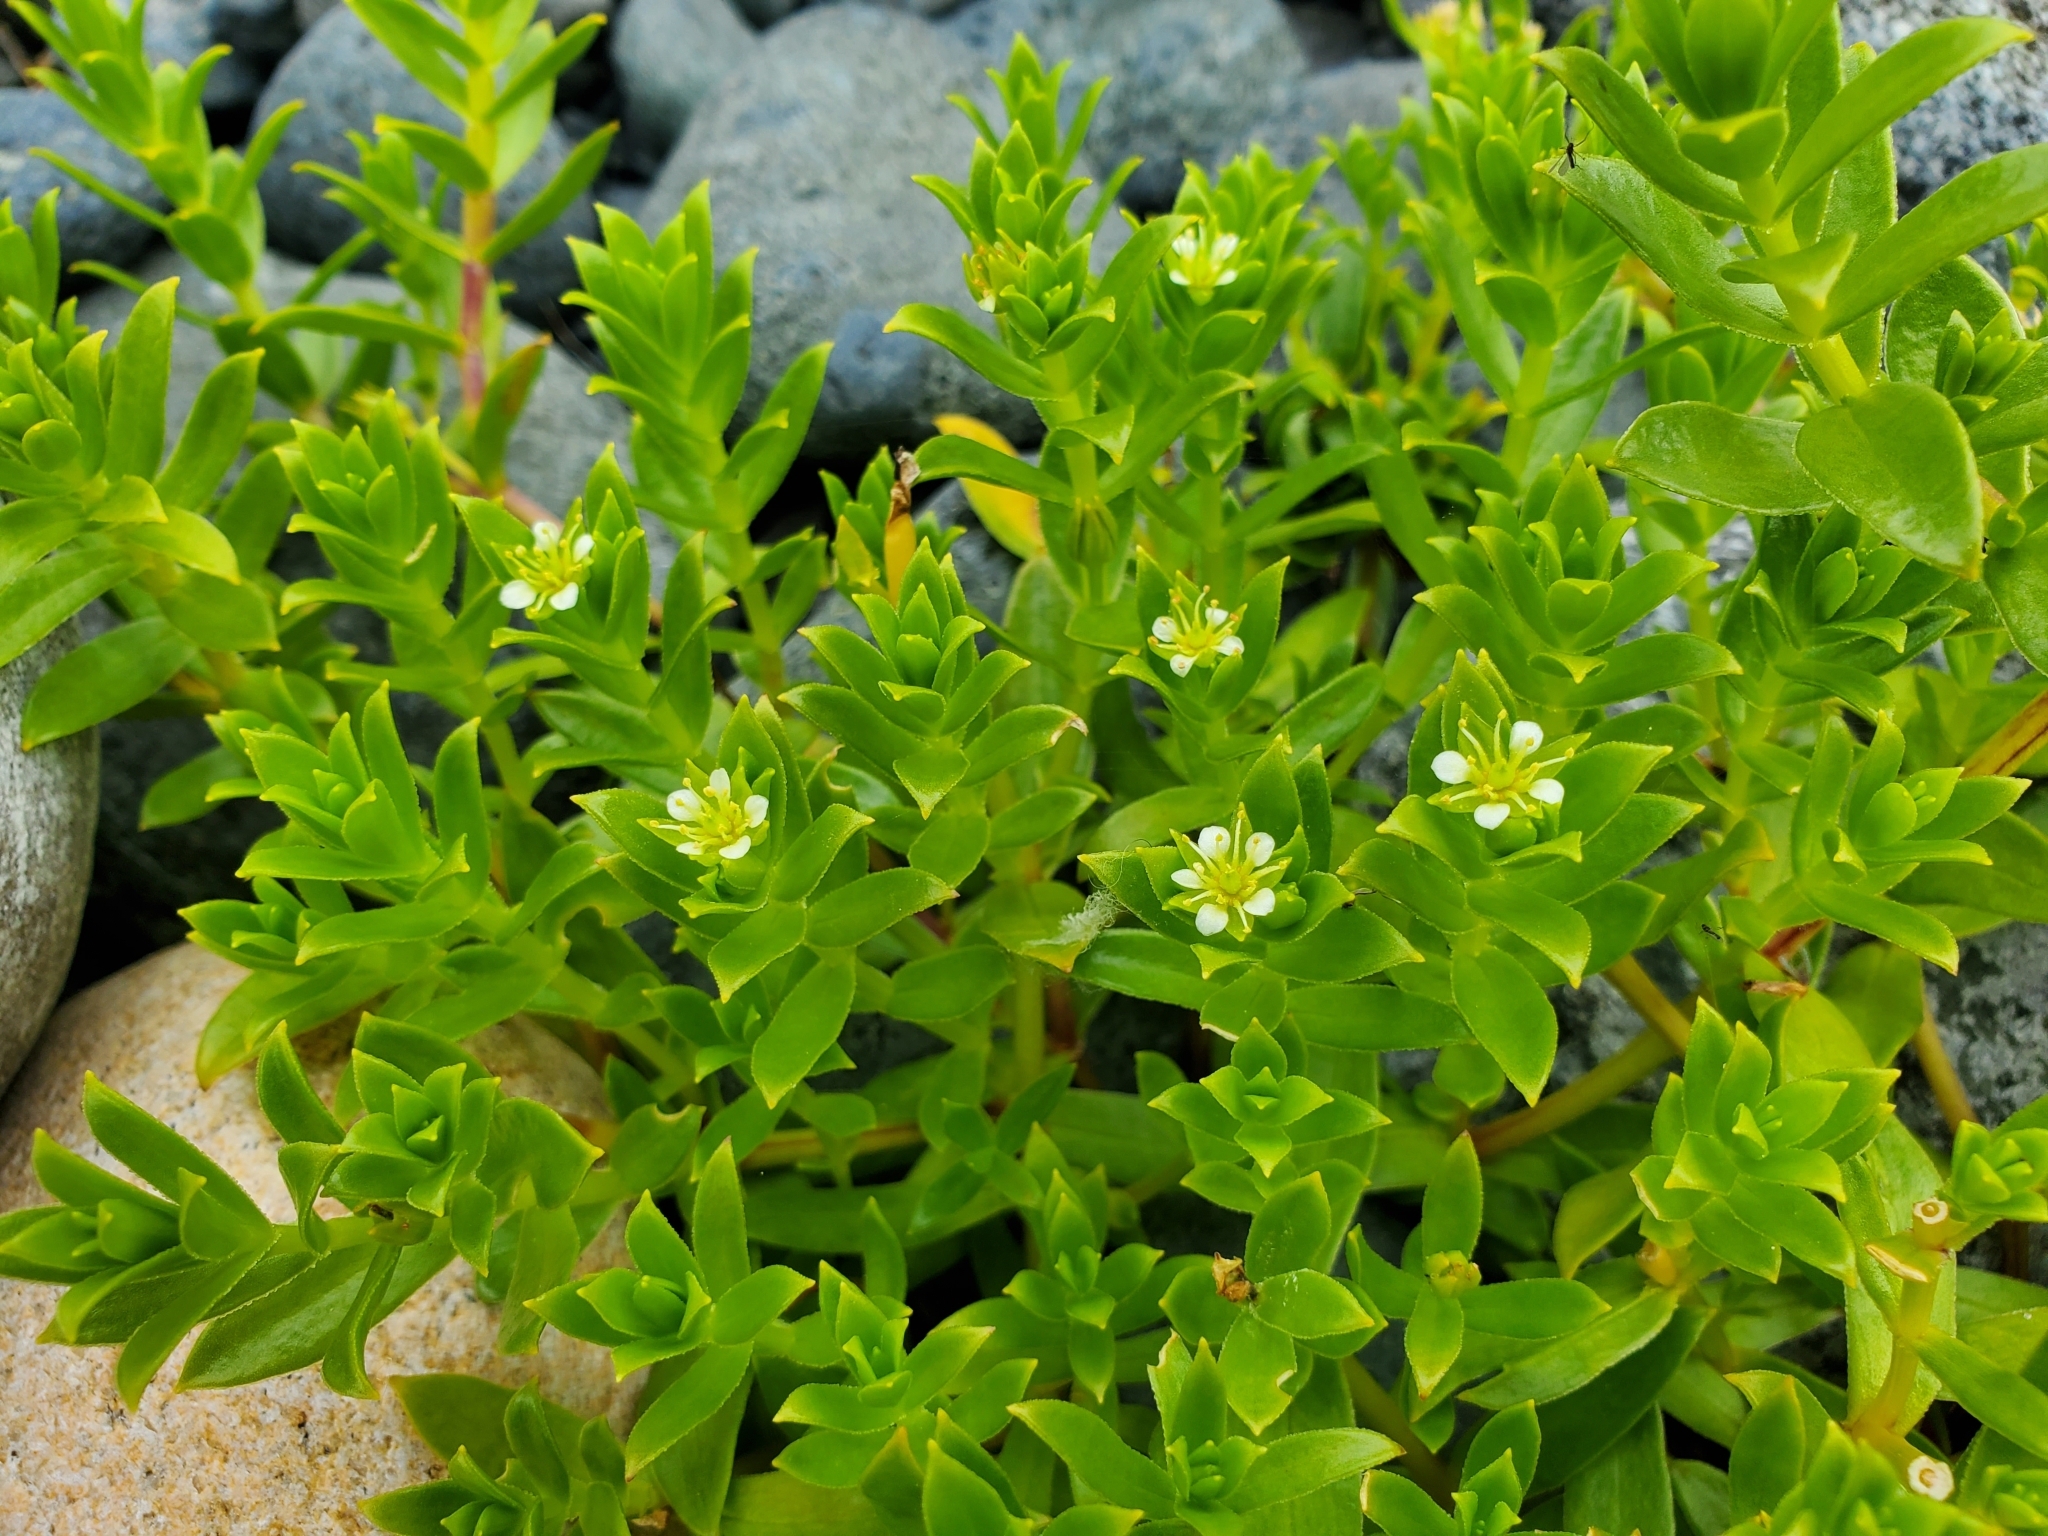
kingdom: Plantae
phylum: Tracheophyta
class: Magnoliopsida
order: Caryophyllales
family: Caryophyllaceae
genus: Honckenya
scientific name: Honckenya peploides
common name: Sea sandwort
